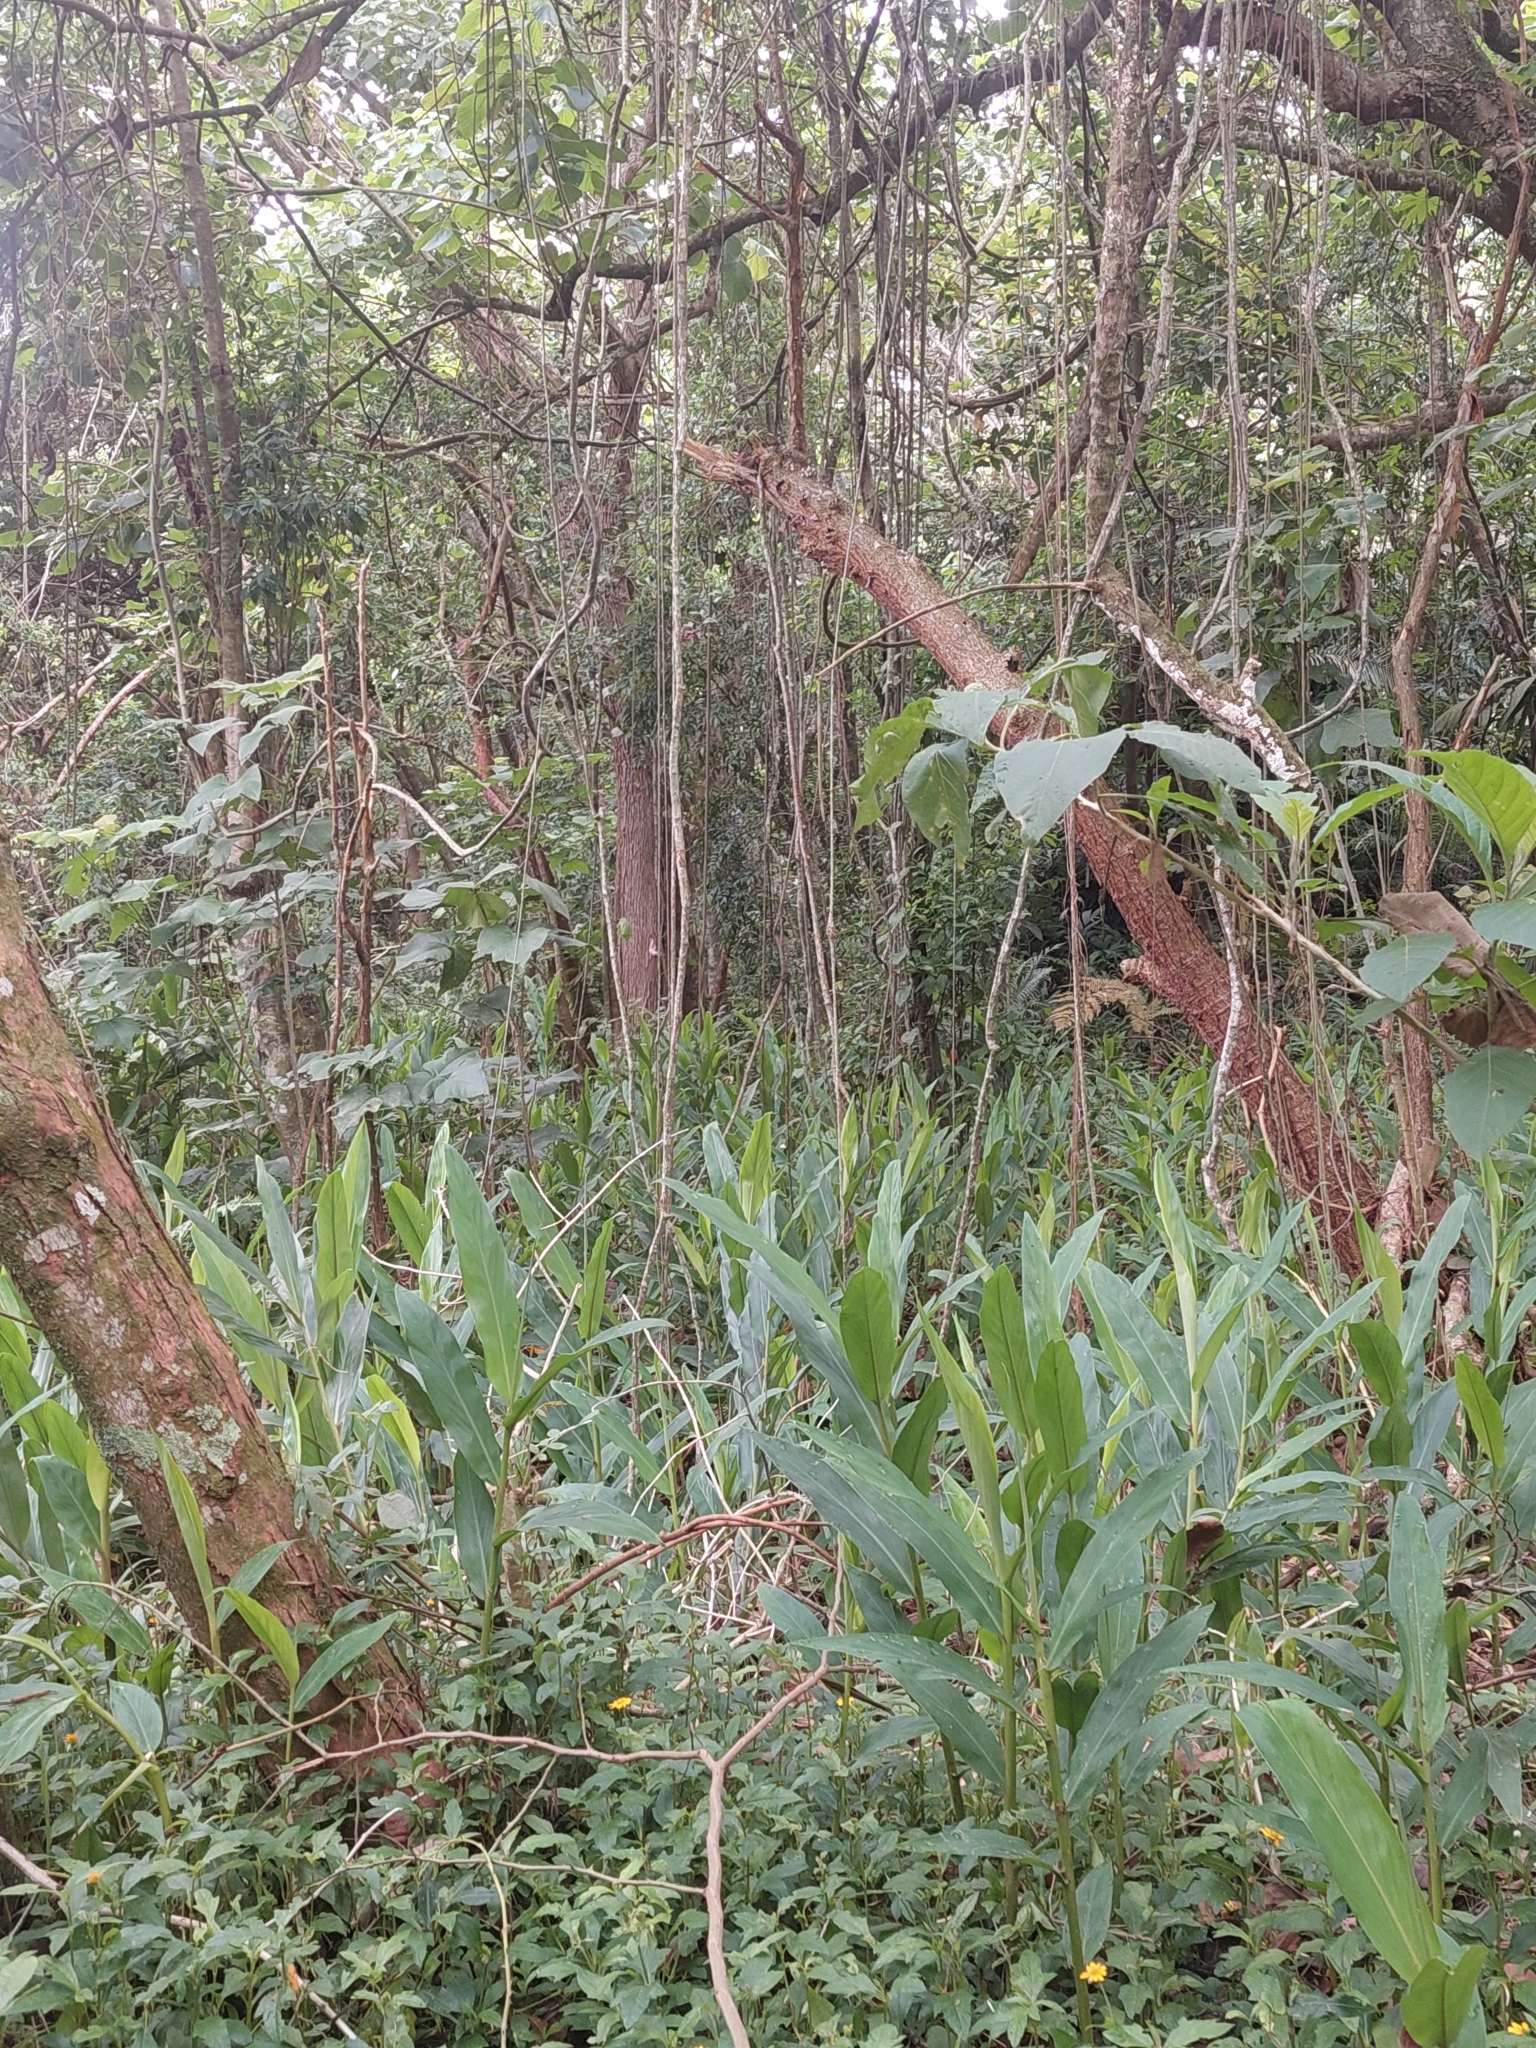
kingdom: Plantae
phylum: Tracheophyta
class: Liliopsida
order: Zingiberales
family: Zingiberaceae
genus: Hedychium
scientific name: Hedychium coronarium
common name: White garland-lily
